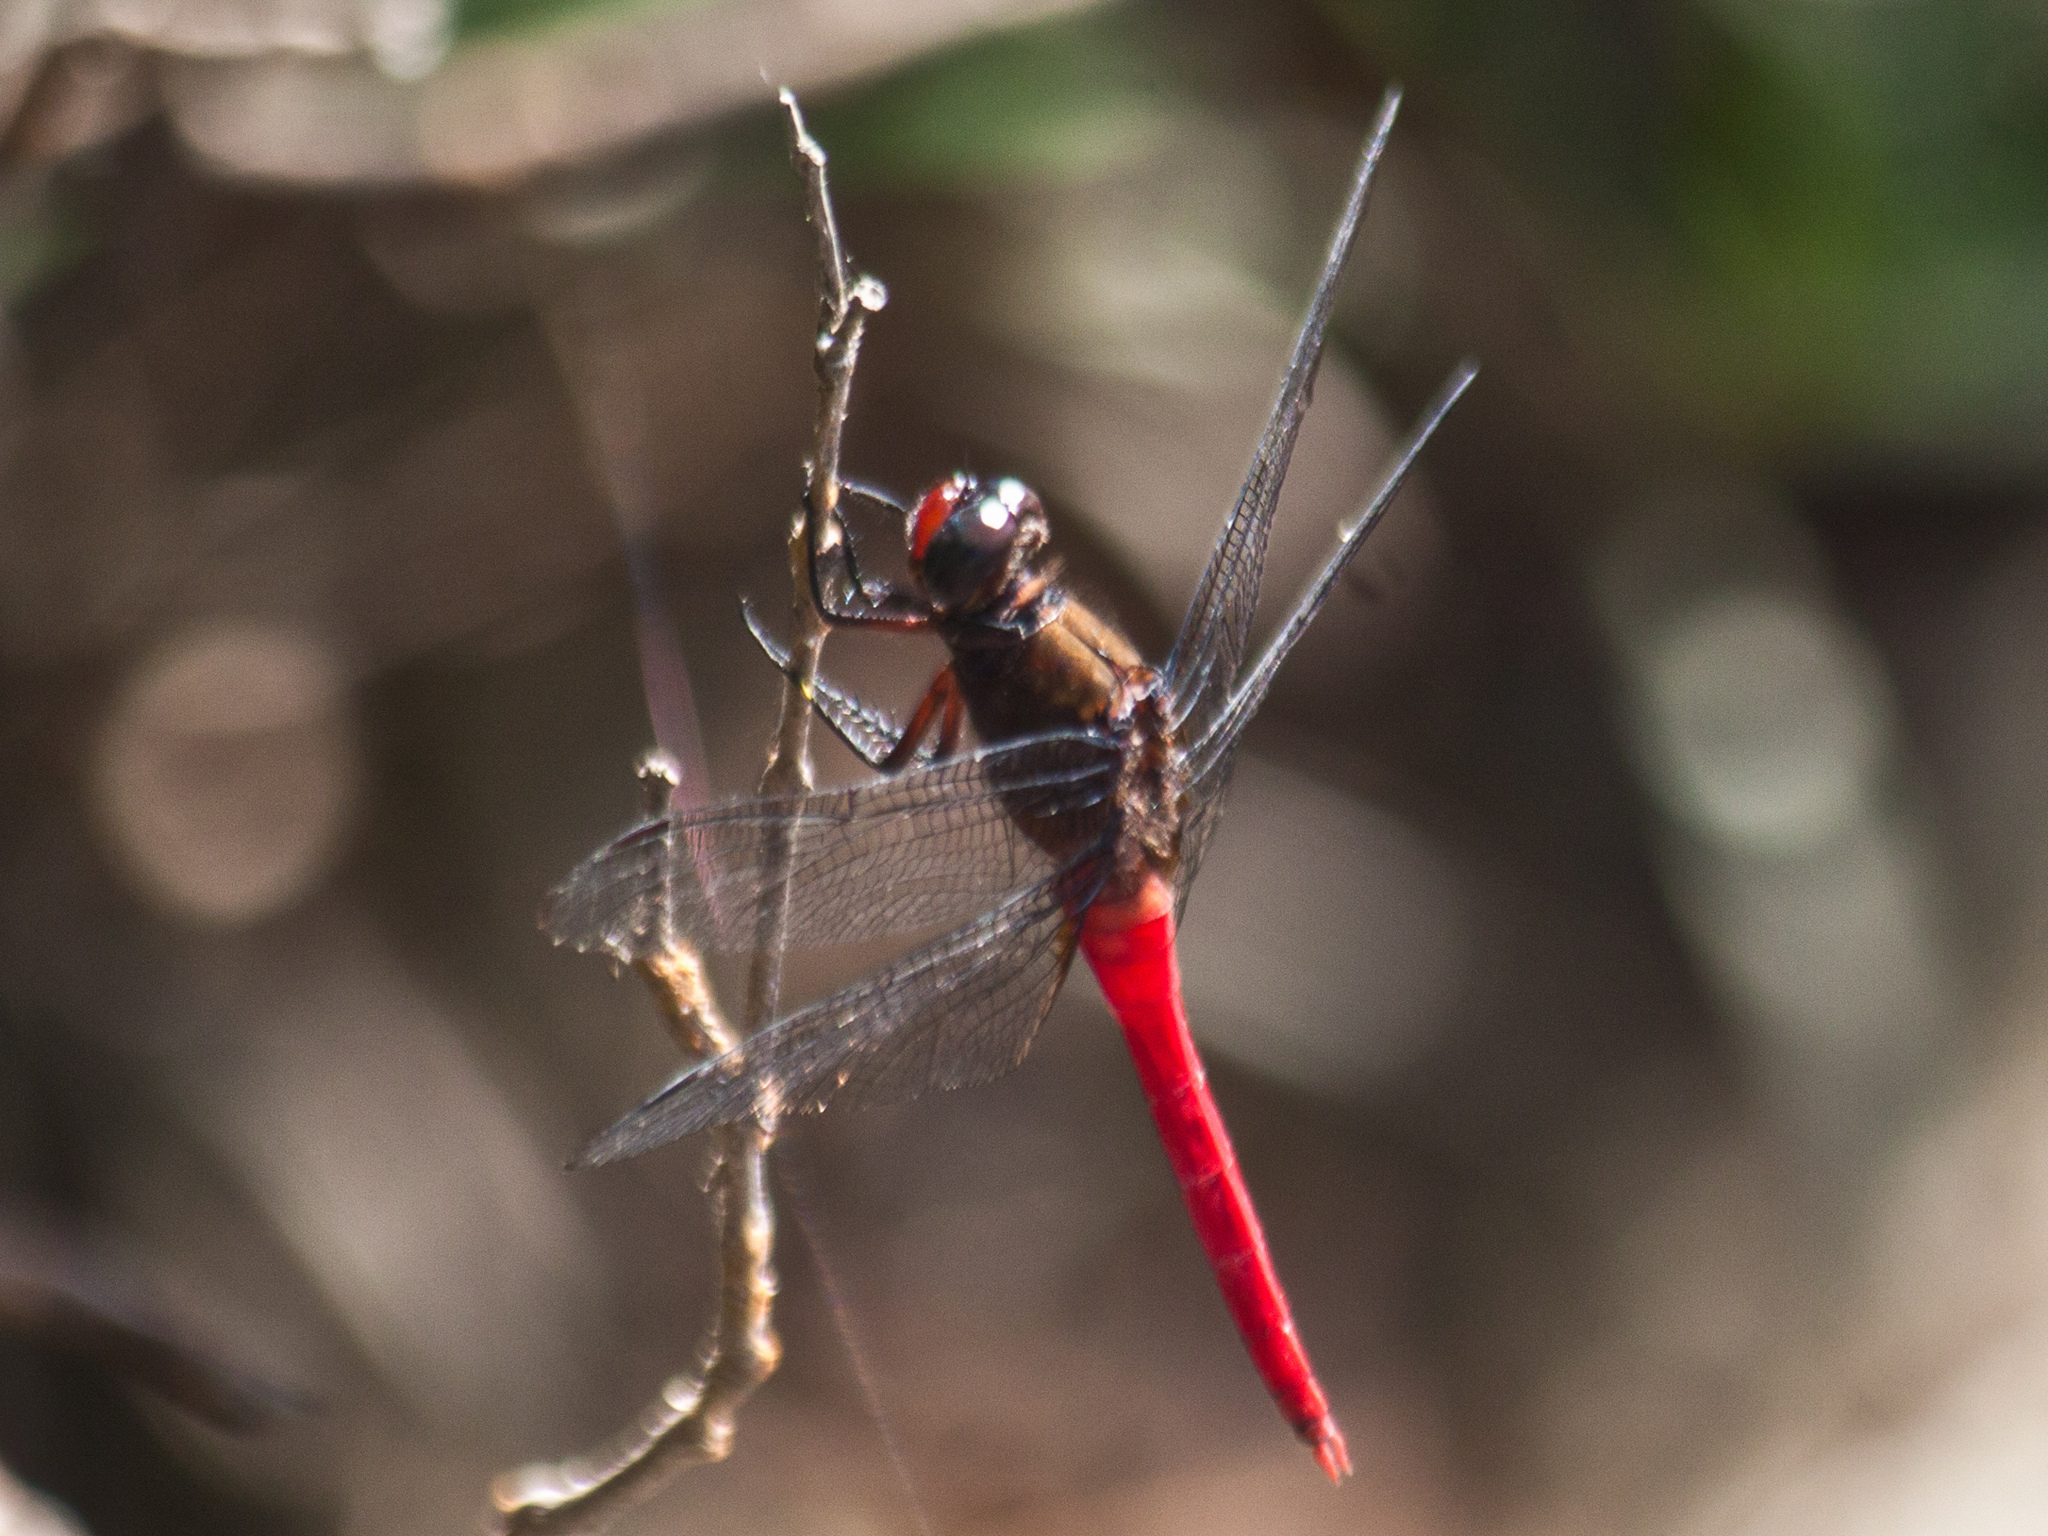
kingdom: Animalia
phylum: Arthropoda
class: Insecta
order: Odonata
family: Libellulidae
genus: Orthetrum
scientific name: Orthetrum chrysis
